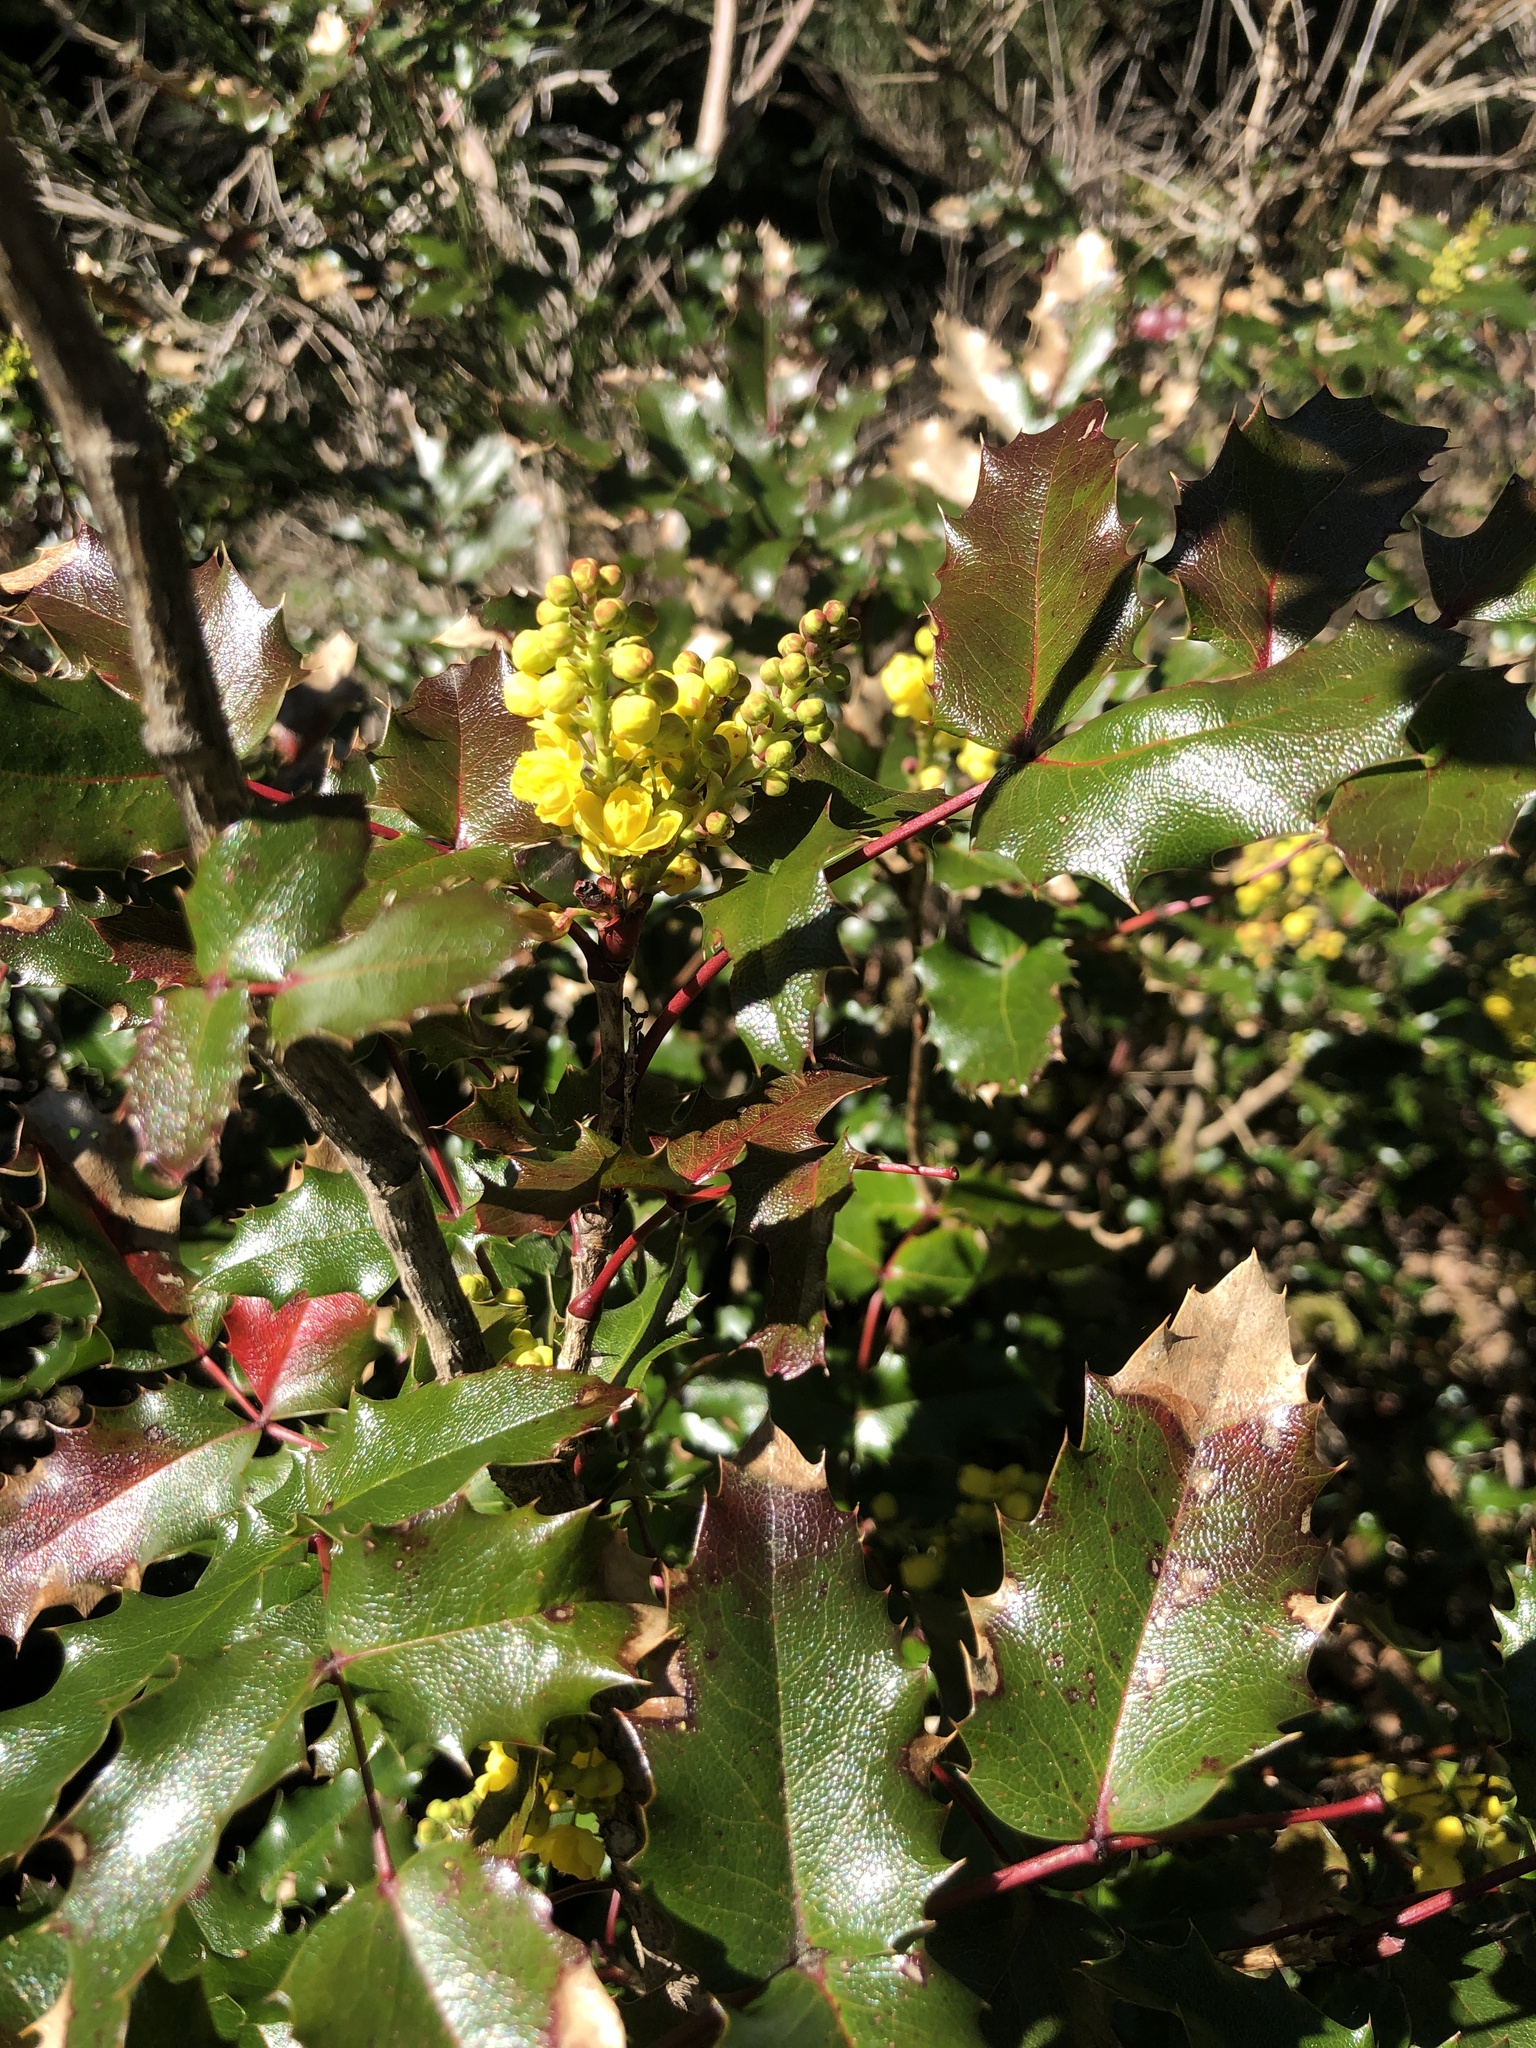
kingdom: Plantae
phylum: Tracheophyta
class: Magnoliopsida
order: Ranunculales
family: Berberidaceae
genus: Mahonia
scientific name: Mahonia aquifolium
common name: Oregon-grape
